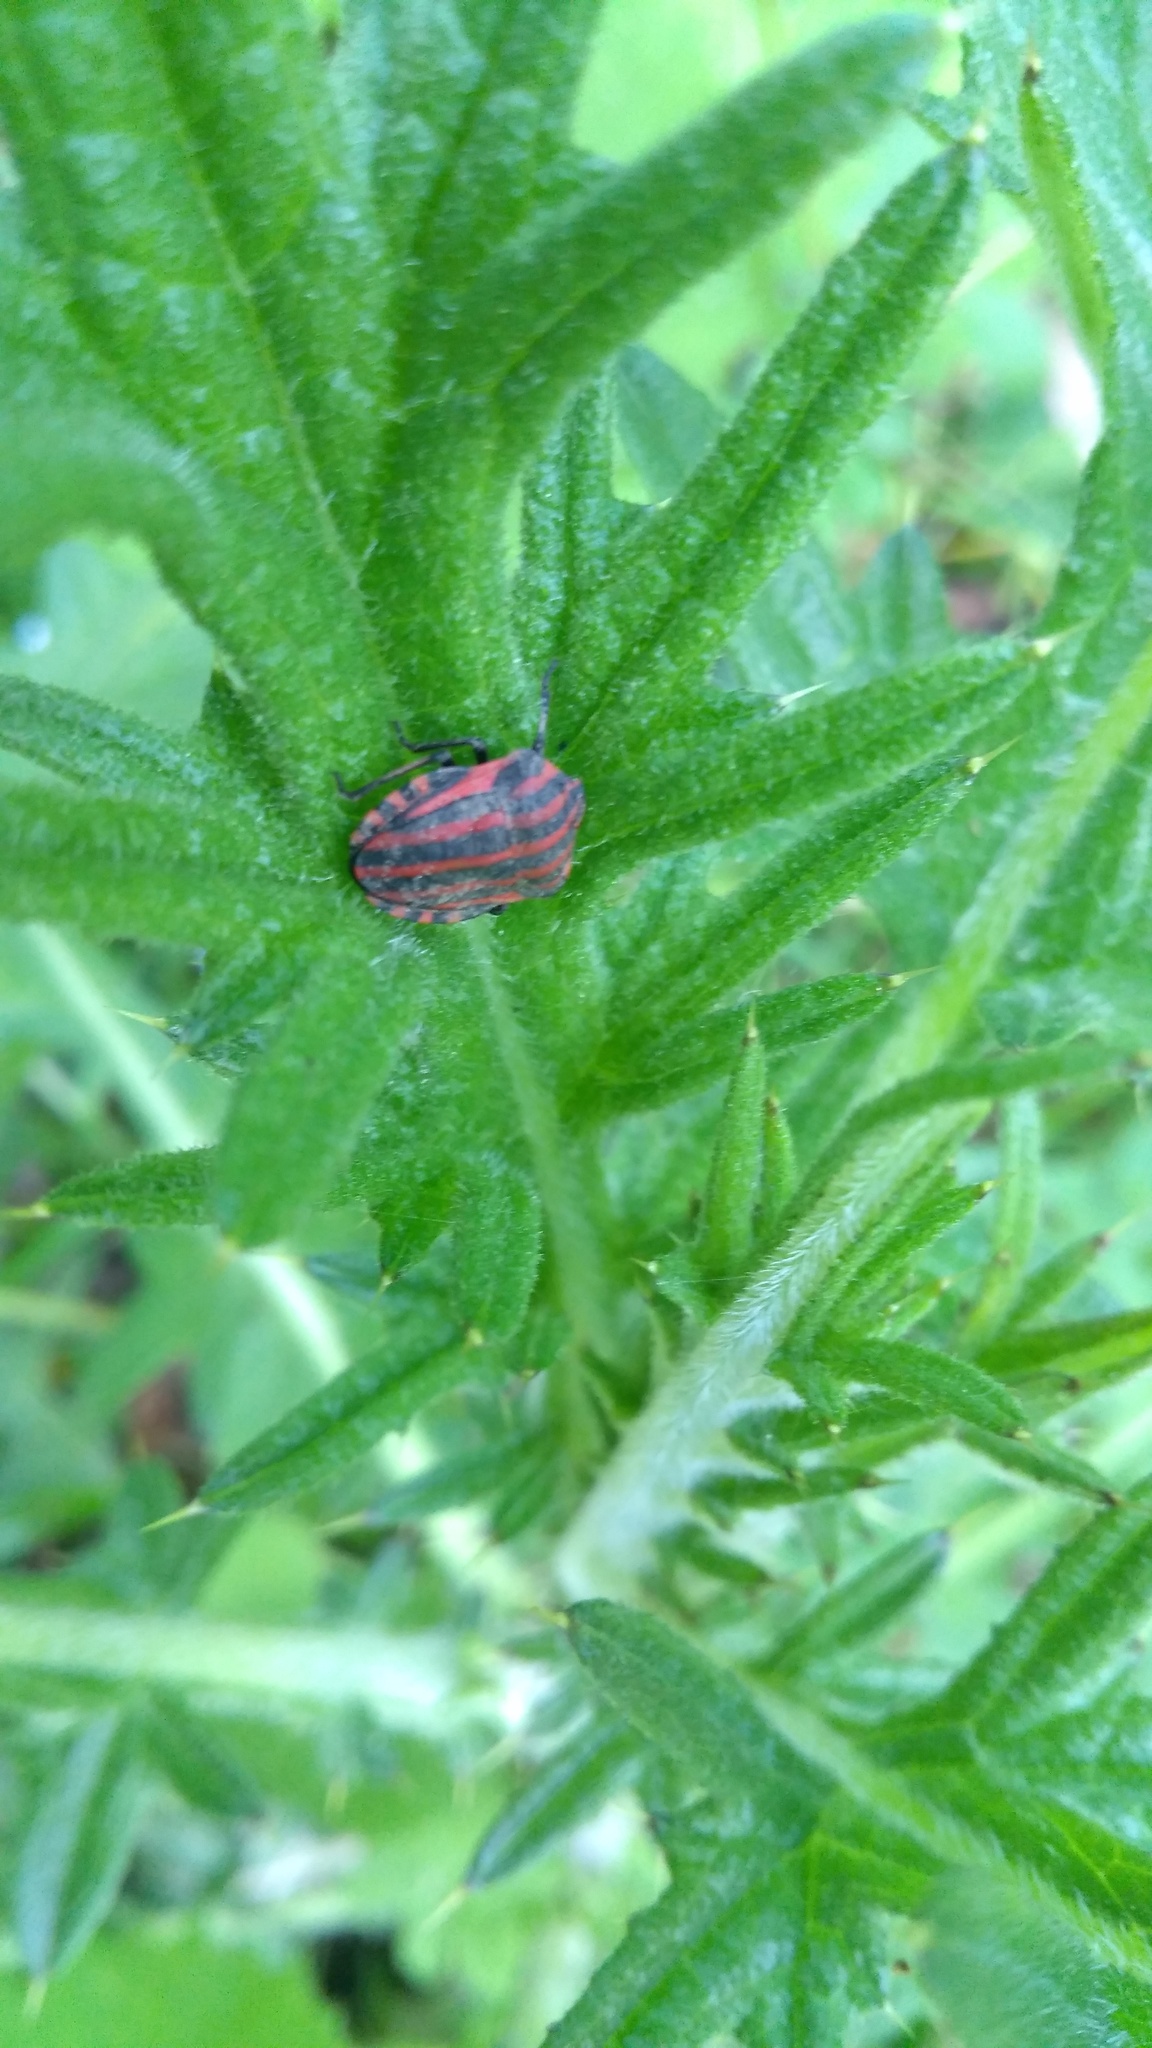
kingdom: Animalia
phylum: Arthropoda
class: Insecta
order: Hemiptera
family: Pentatomidae
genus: Graphosoma
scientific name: Graphosoma italicum
